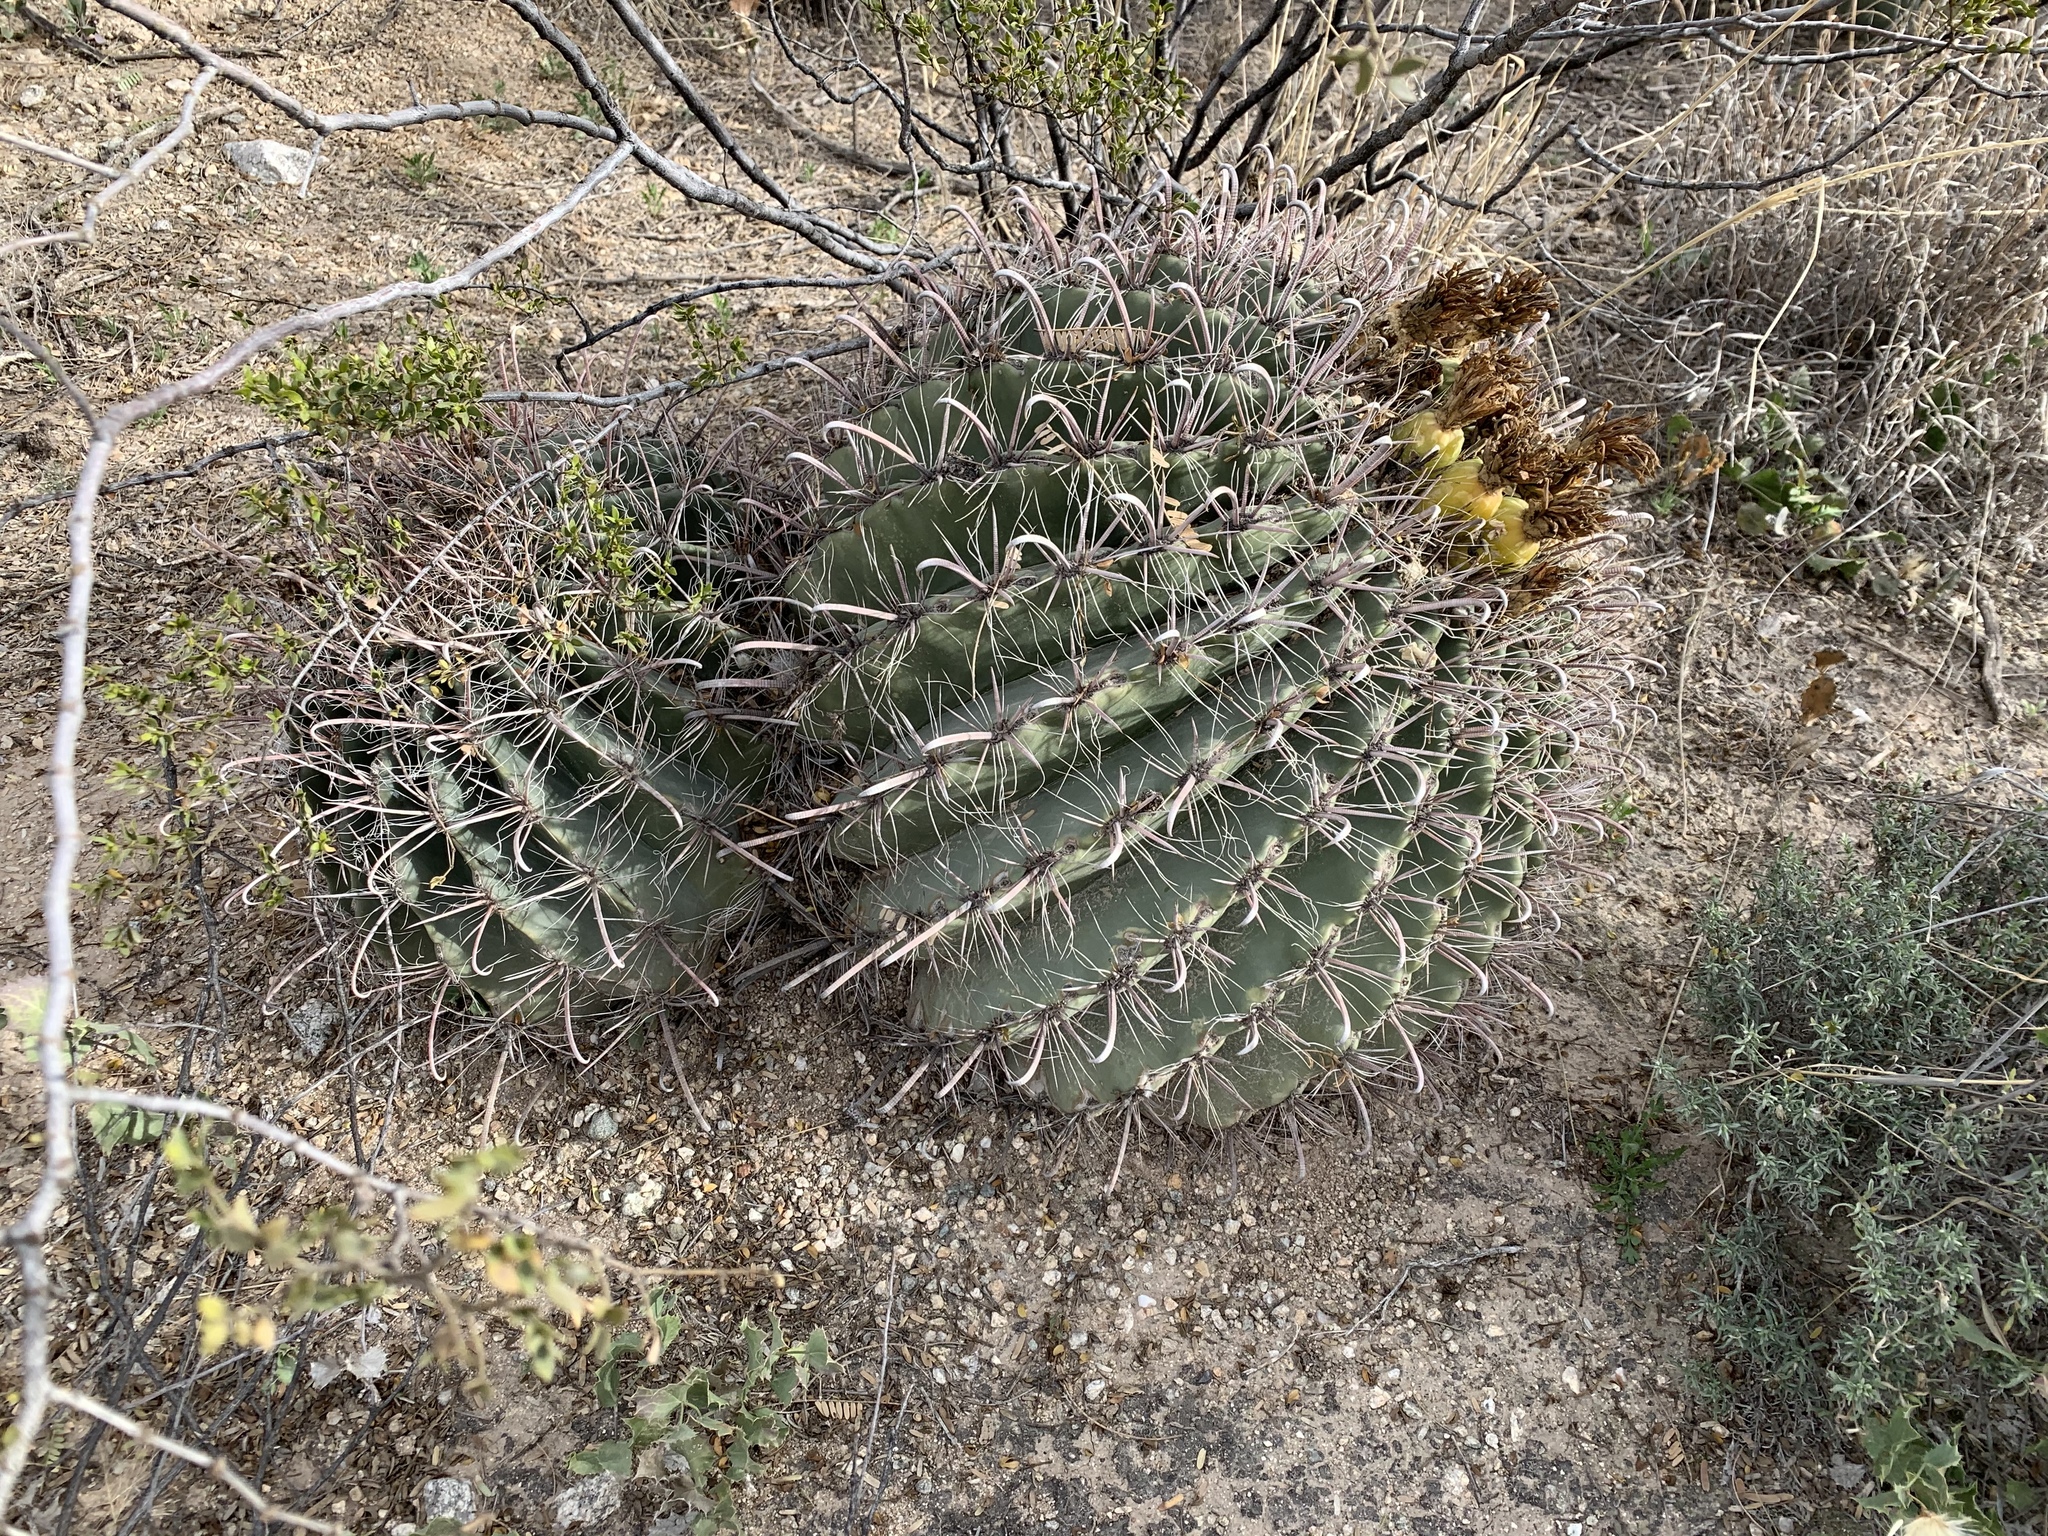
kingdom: Plantae
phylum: Tracheophyta
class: Magnoliopsida
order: Caryophyllales
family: Cactaceae
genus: Ferocactus
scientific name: Ferocactus wislizeni
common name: Candy barrel cactus
